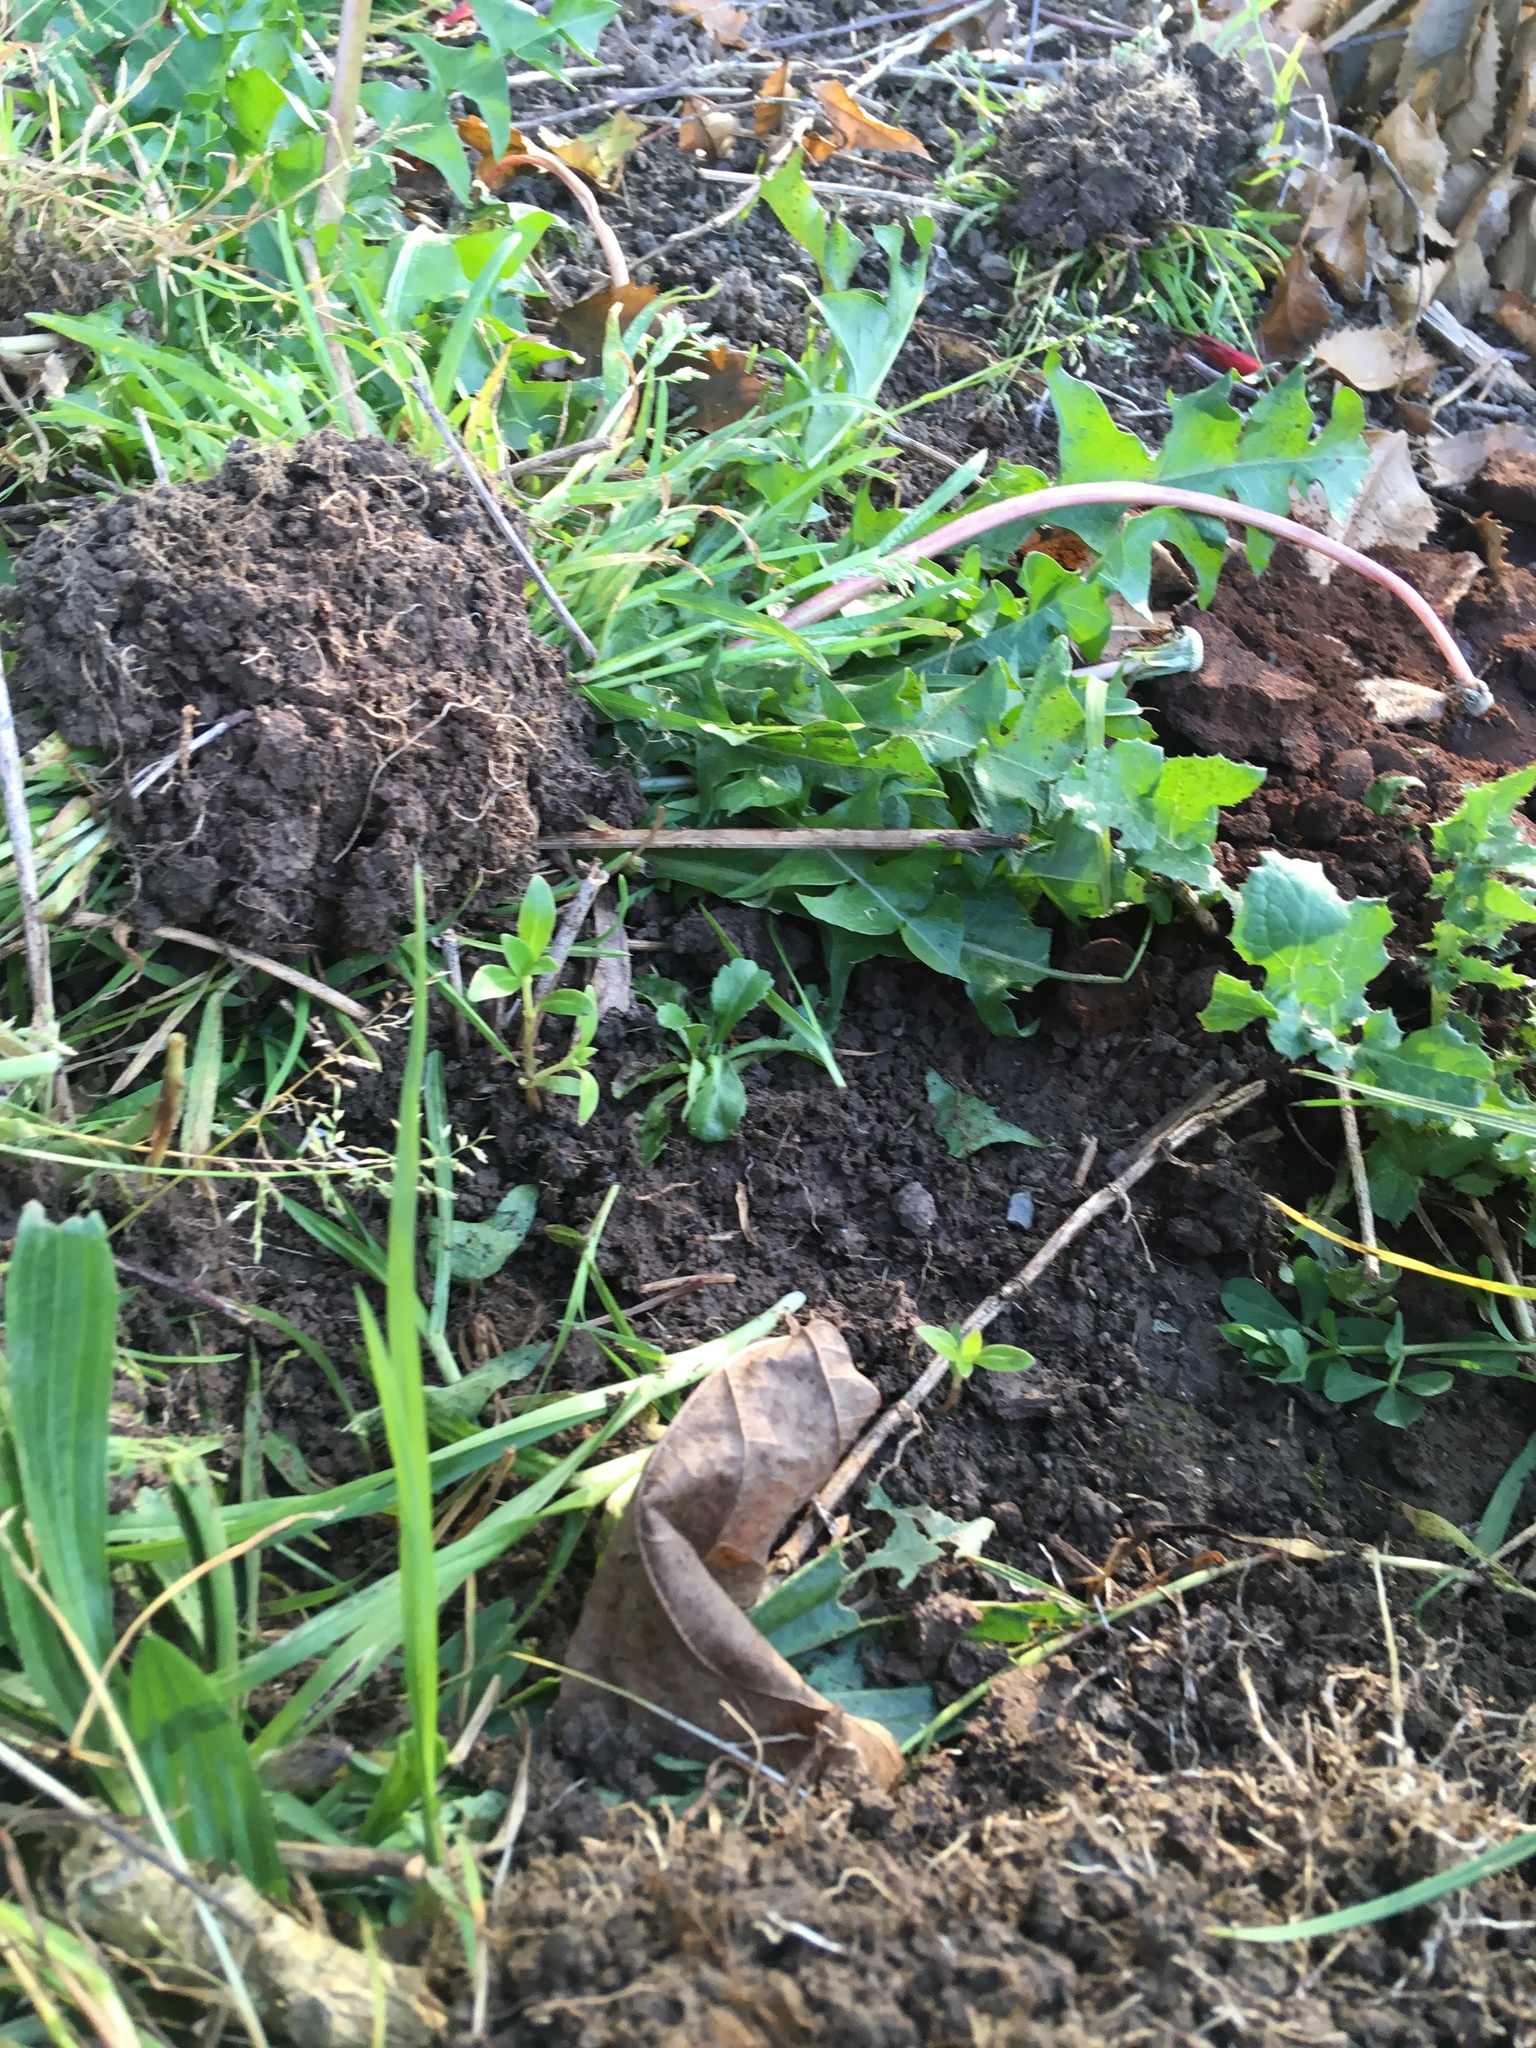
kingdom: Plantae
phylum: Tracheophyta
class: Magnoliopsida
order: Asterales
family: Asteraceae
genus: Taraxacum
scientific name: Taraxacum officinale
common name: Common dandelion
